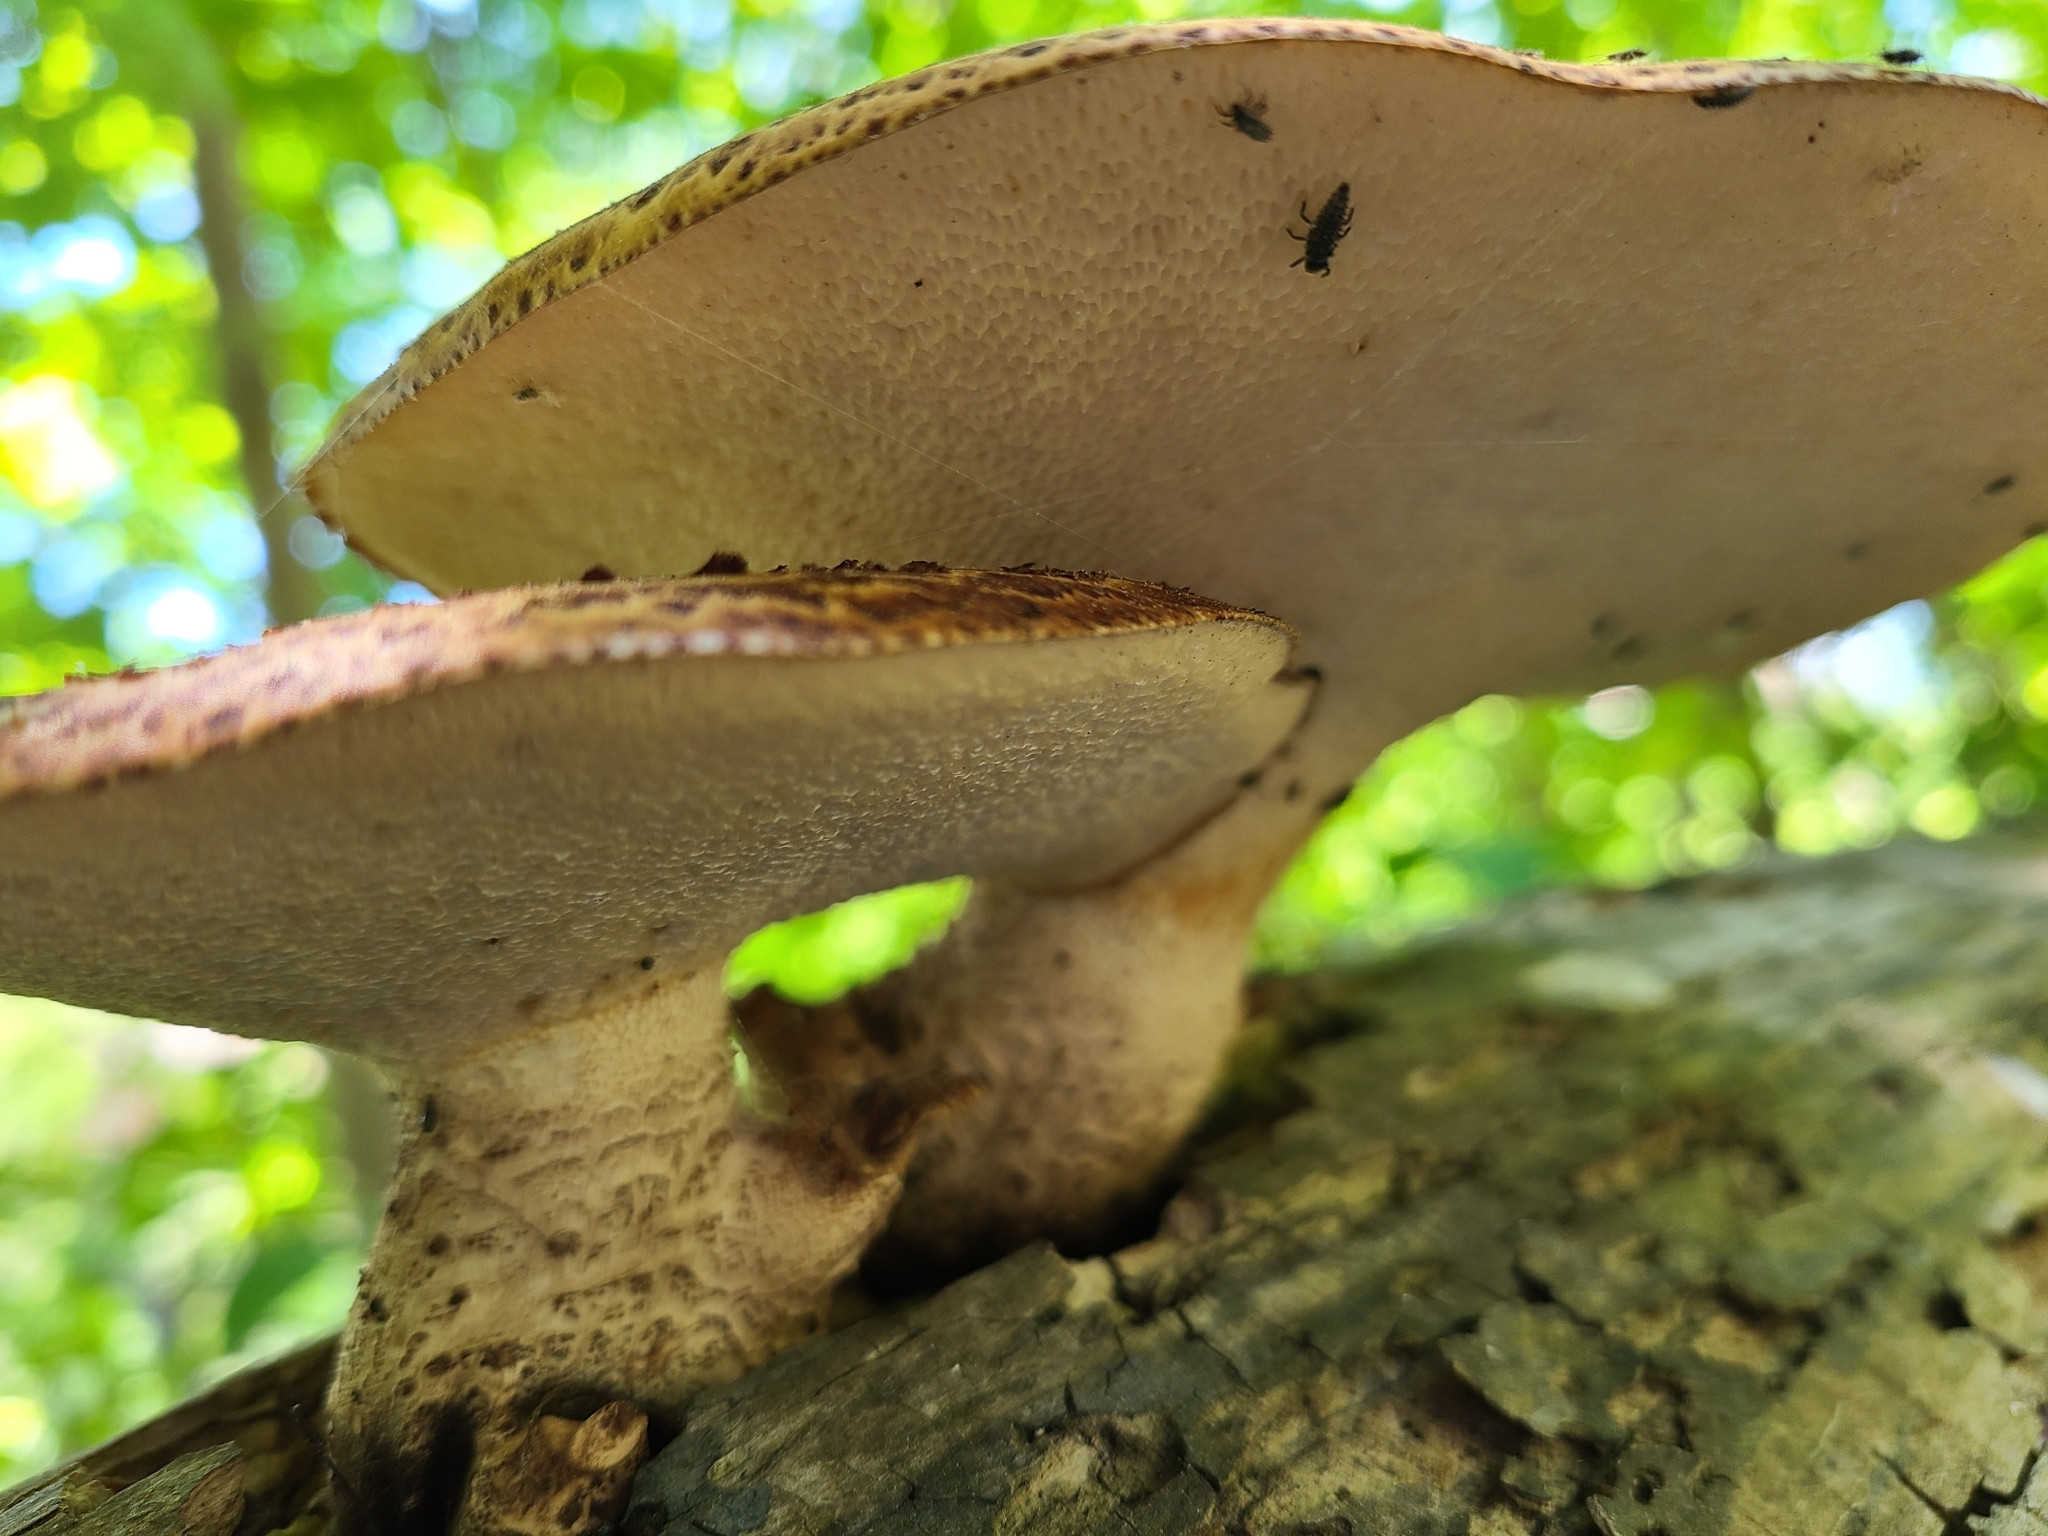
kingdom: Fungi
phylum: Basidiomycota
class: Agaricomycetes
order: Polyporales
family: Polyporaceae
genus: Cerioporus
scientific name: Cerioporus squamosus
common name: Dryad's saddle
